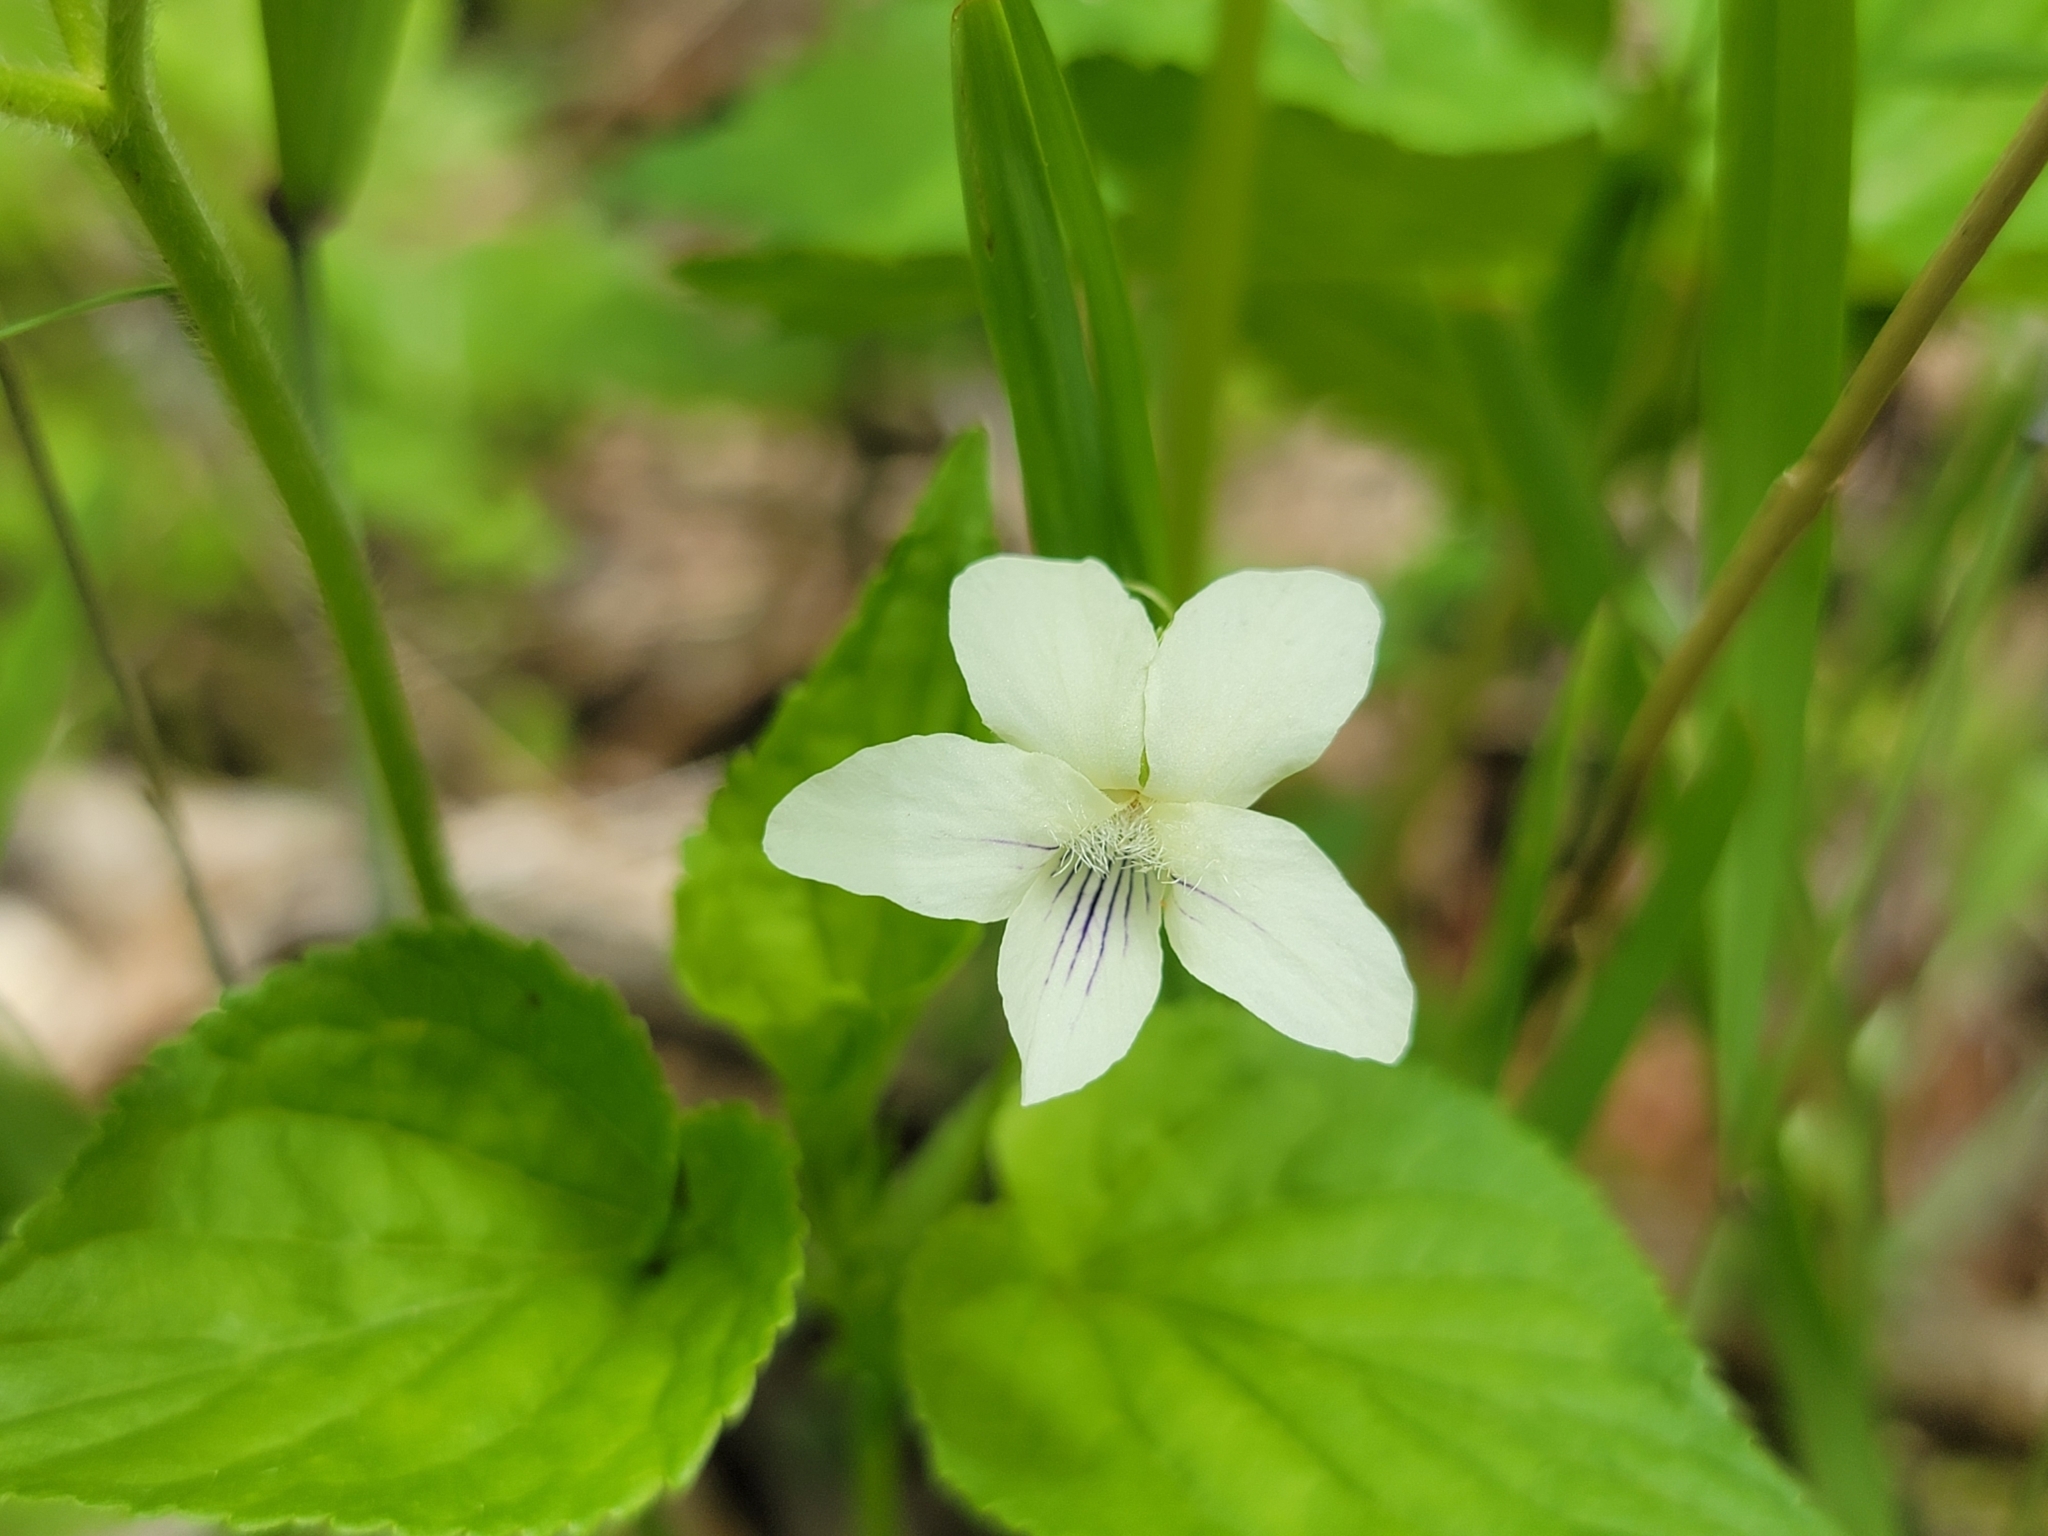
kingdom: Plantae
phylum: Tracheophyta
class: Magnoliopsida
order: Malpighiales
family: Violaceae
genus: Viola
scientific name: Viola striata
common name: Cream violet
